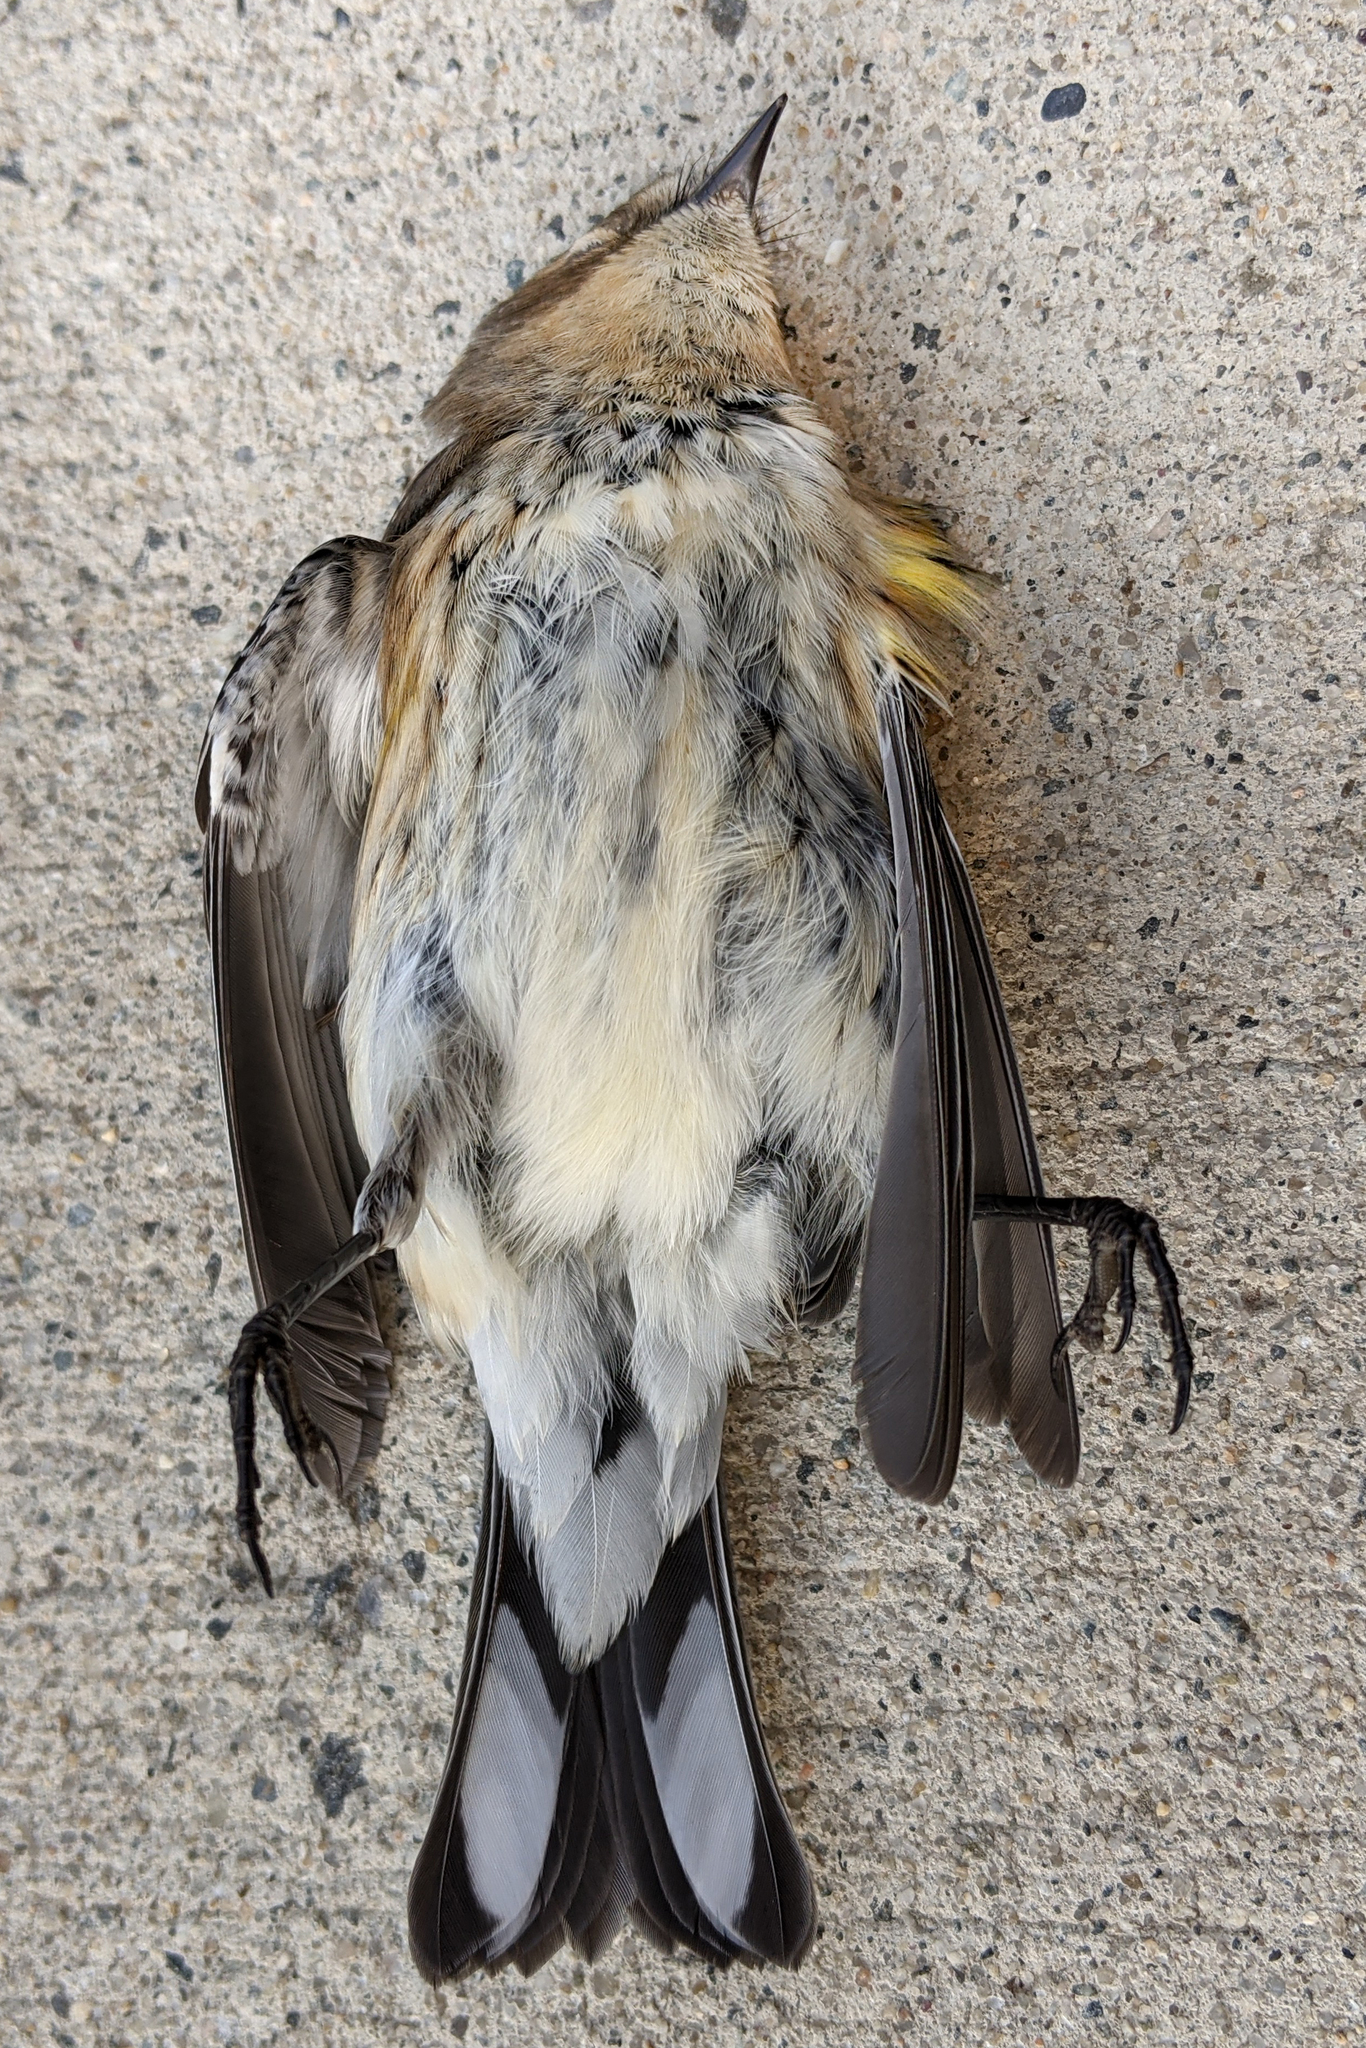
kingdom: Animalia
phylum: Chordata
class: Aves
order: Passeriformes
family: Parulidae
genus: Setophaga
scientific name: Setophaga coronata
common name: Myrtle warbler
